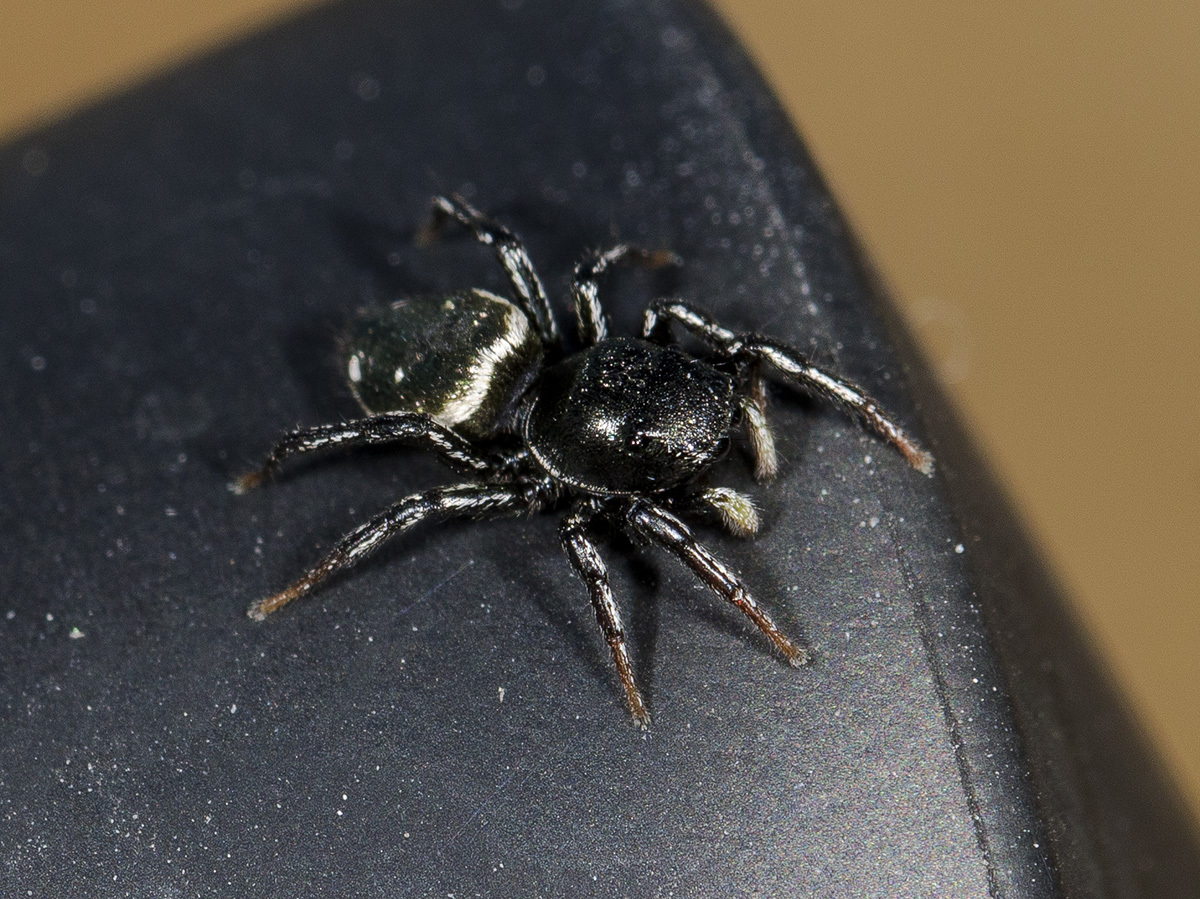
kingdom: Animalia
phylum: Arthropoda
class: Arachnida
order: Araneae
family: Salticidae
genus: Heliophanus
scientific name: Heliophanus chovdensis
